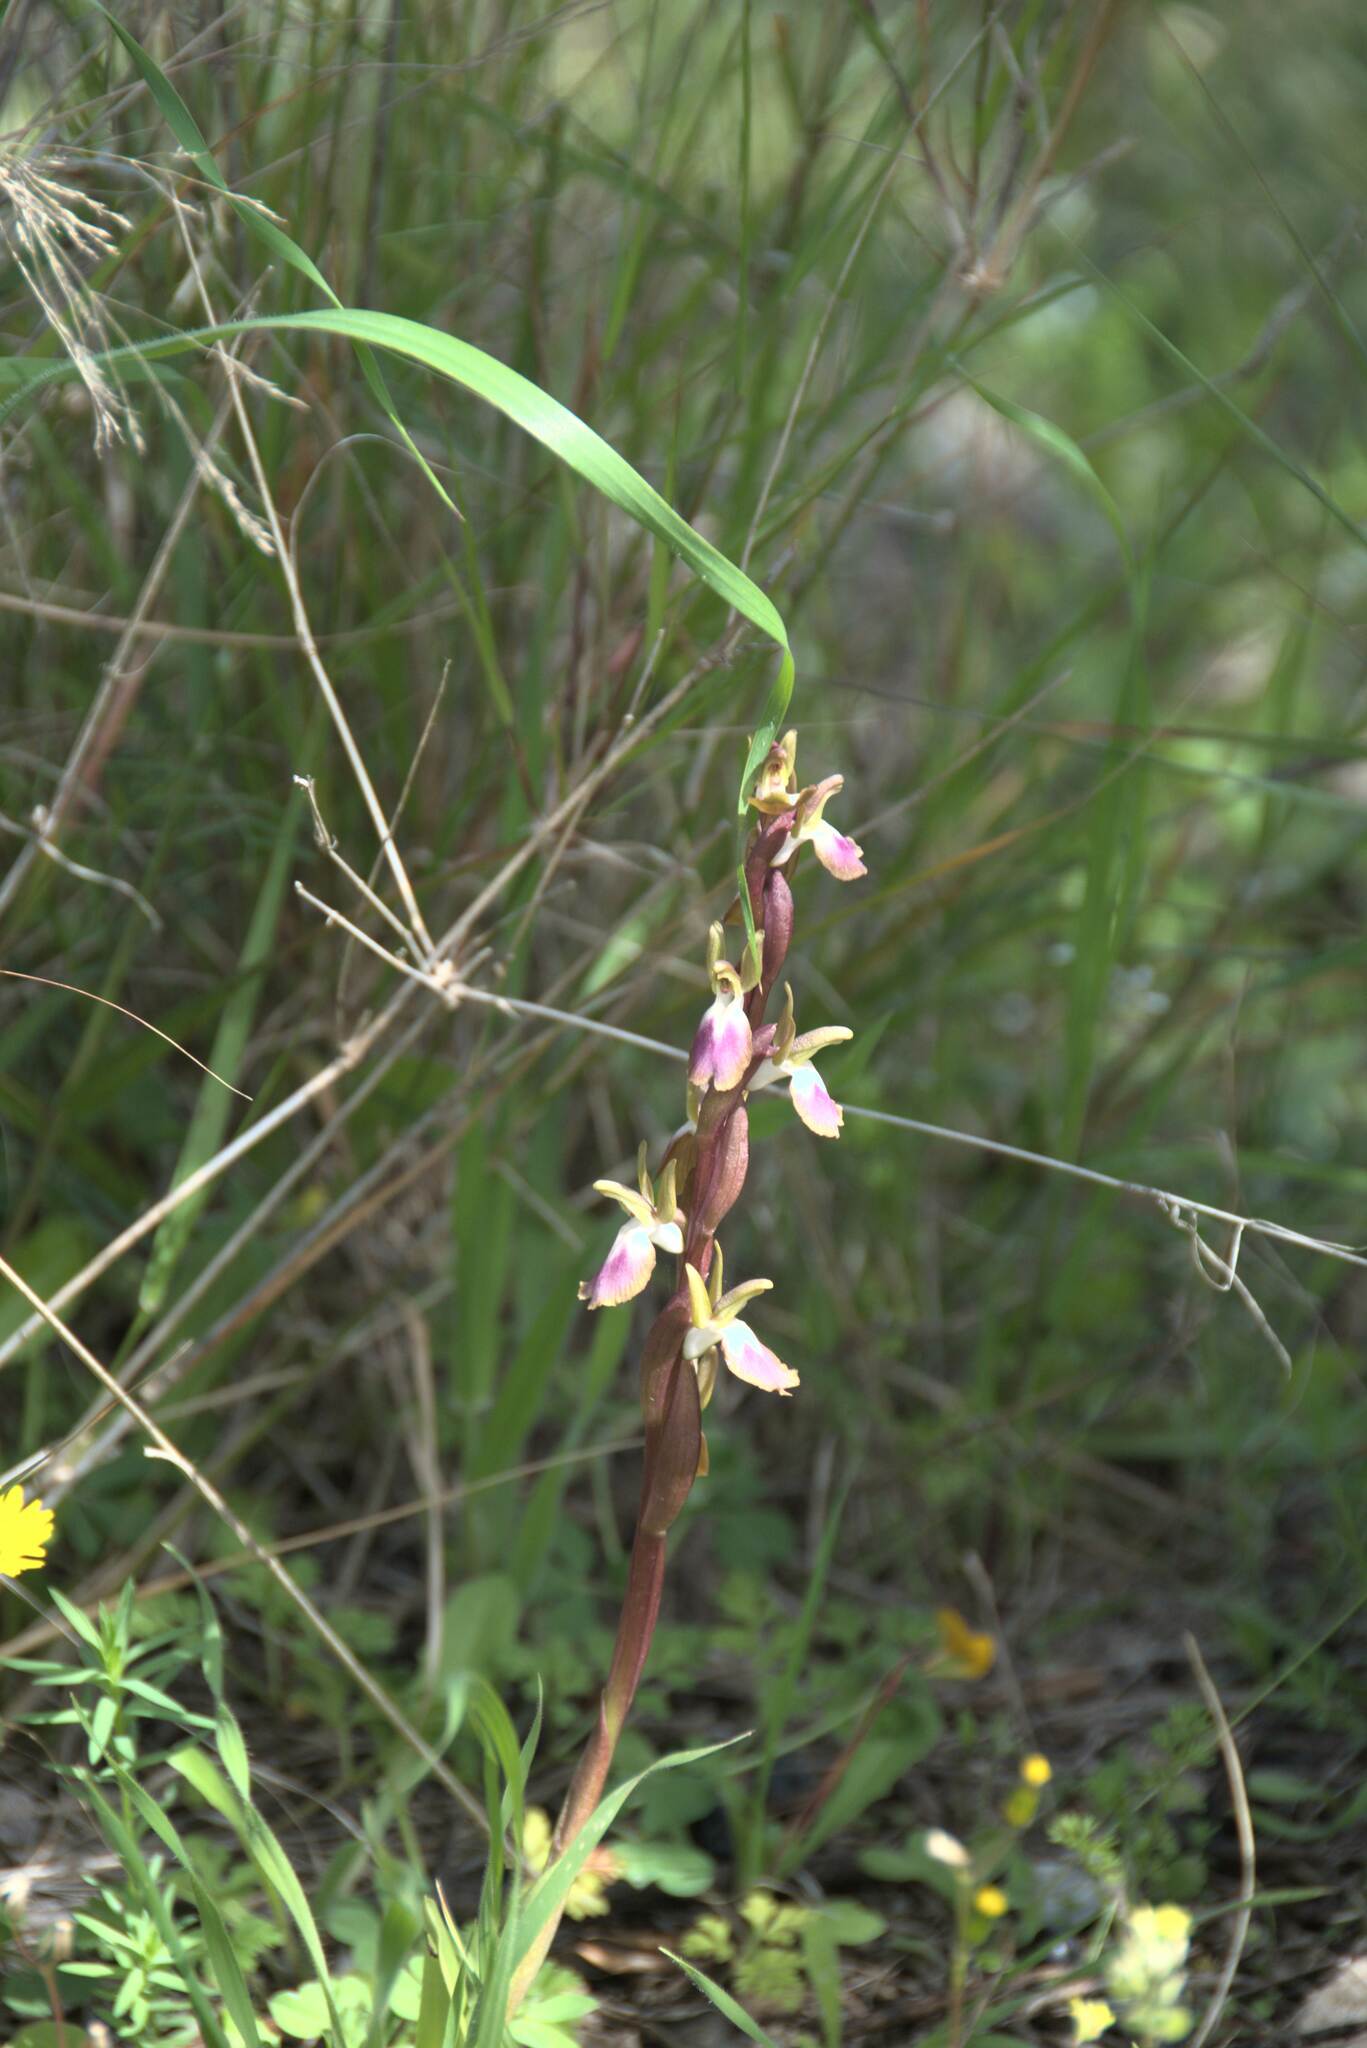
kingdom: Plantae
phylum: Tracheophyta
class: Liliopsida
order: Asparagales
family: Orchidaceae
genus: Anacamptis
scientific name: Anacamptis collina
